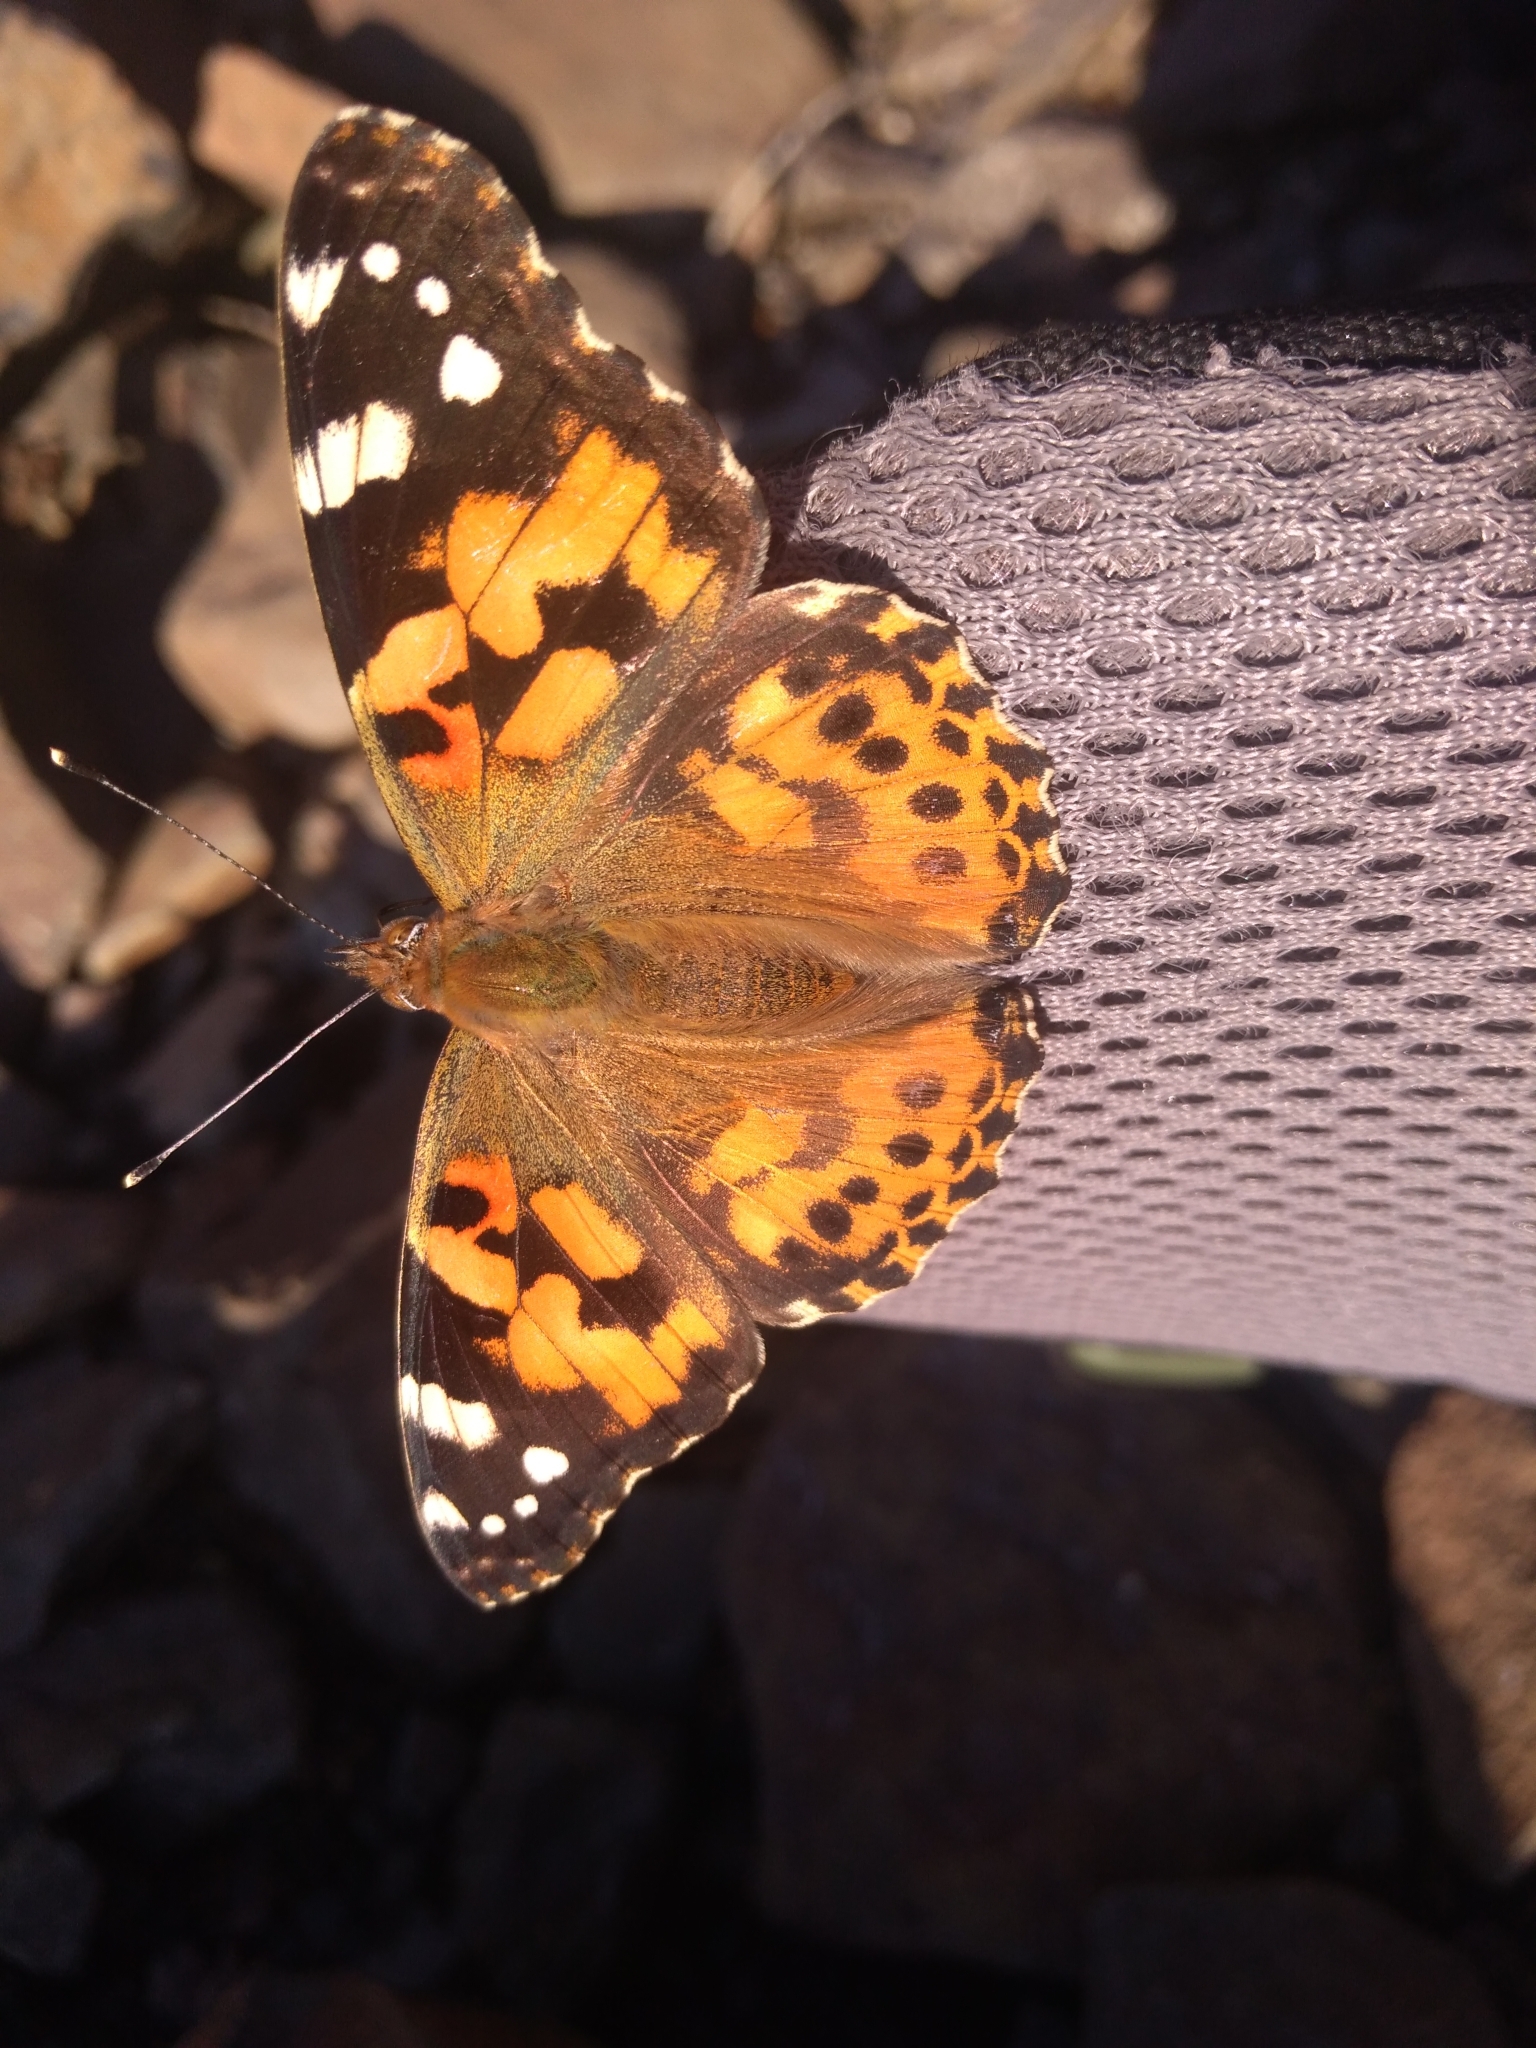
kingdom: Animalia
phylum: Arthropoda
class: Insecta
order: Lepidoptera
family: Nymphalidae
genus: Vanessa
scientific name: Vanessa cardui
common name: Painted lady
